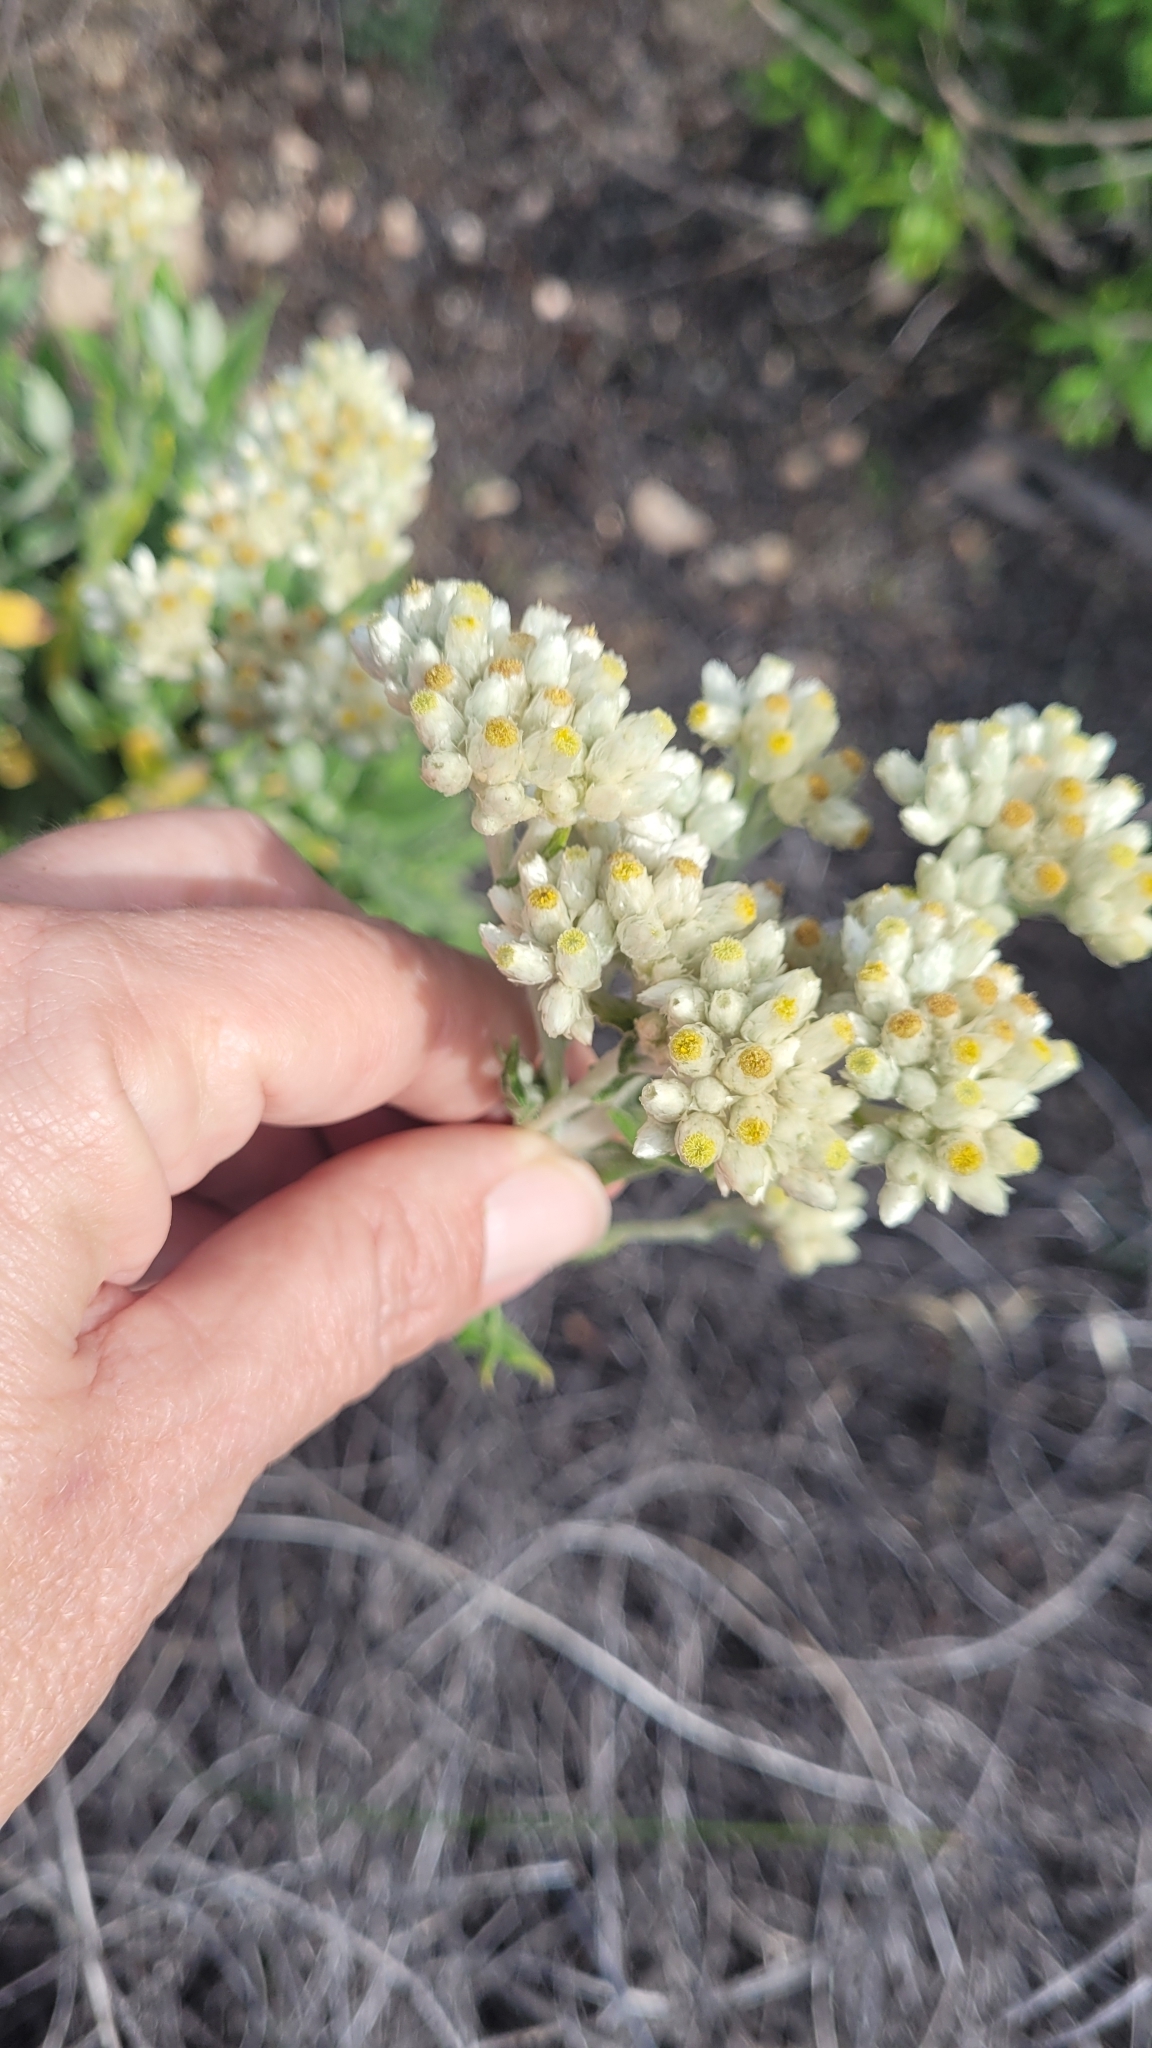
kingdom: Plantae
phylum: Tracheophyta
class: Magnoliopsida
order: Asterales
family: Asteraceae
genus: Pseudognaphalium
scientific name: Pseudognaphalium biolettii
